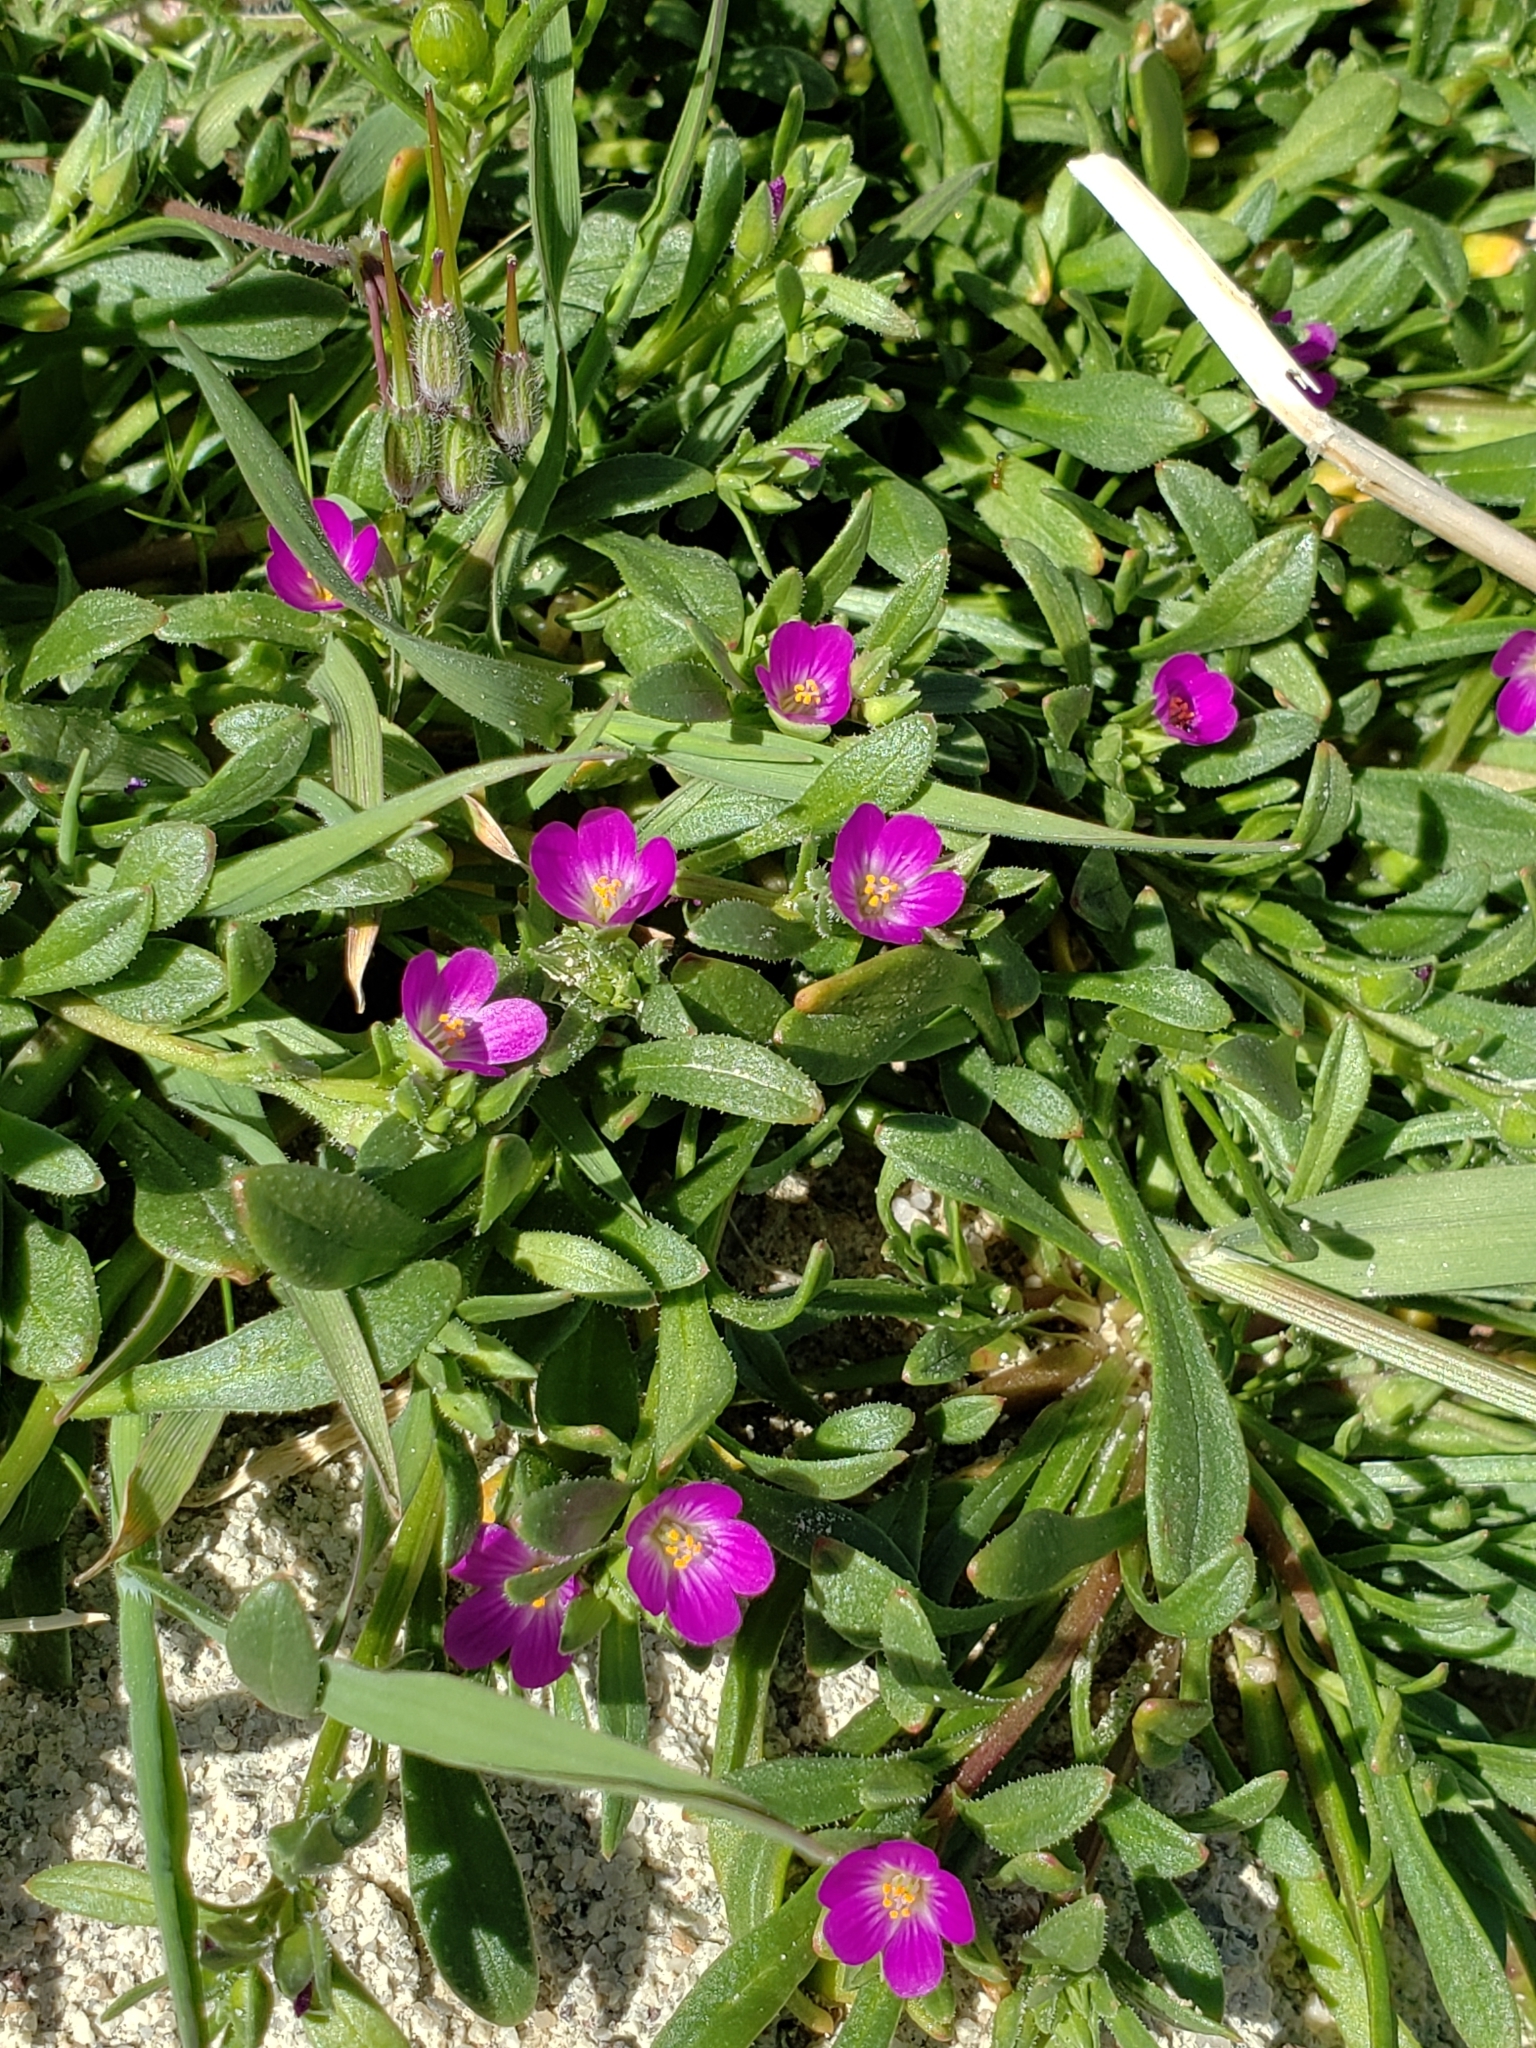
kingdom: Plantae
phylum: Tracheophyta
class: Magnoliopsida
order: Caryophyllales
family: Montiaceae
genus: Calandrinia
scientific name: Calandrinia menziesii
